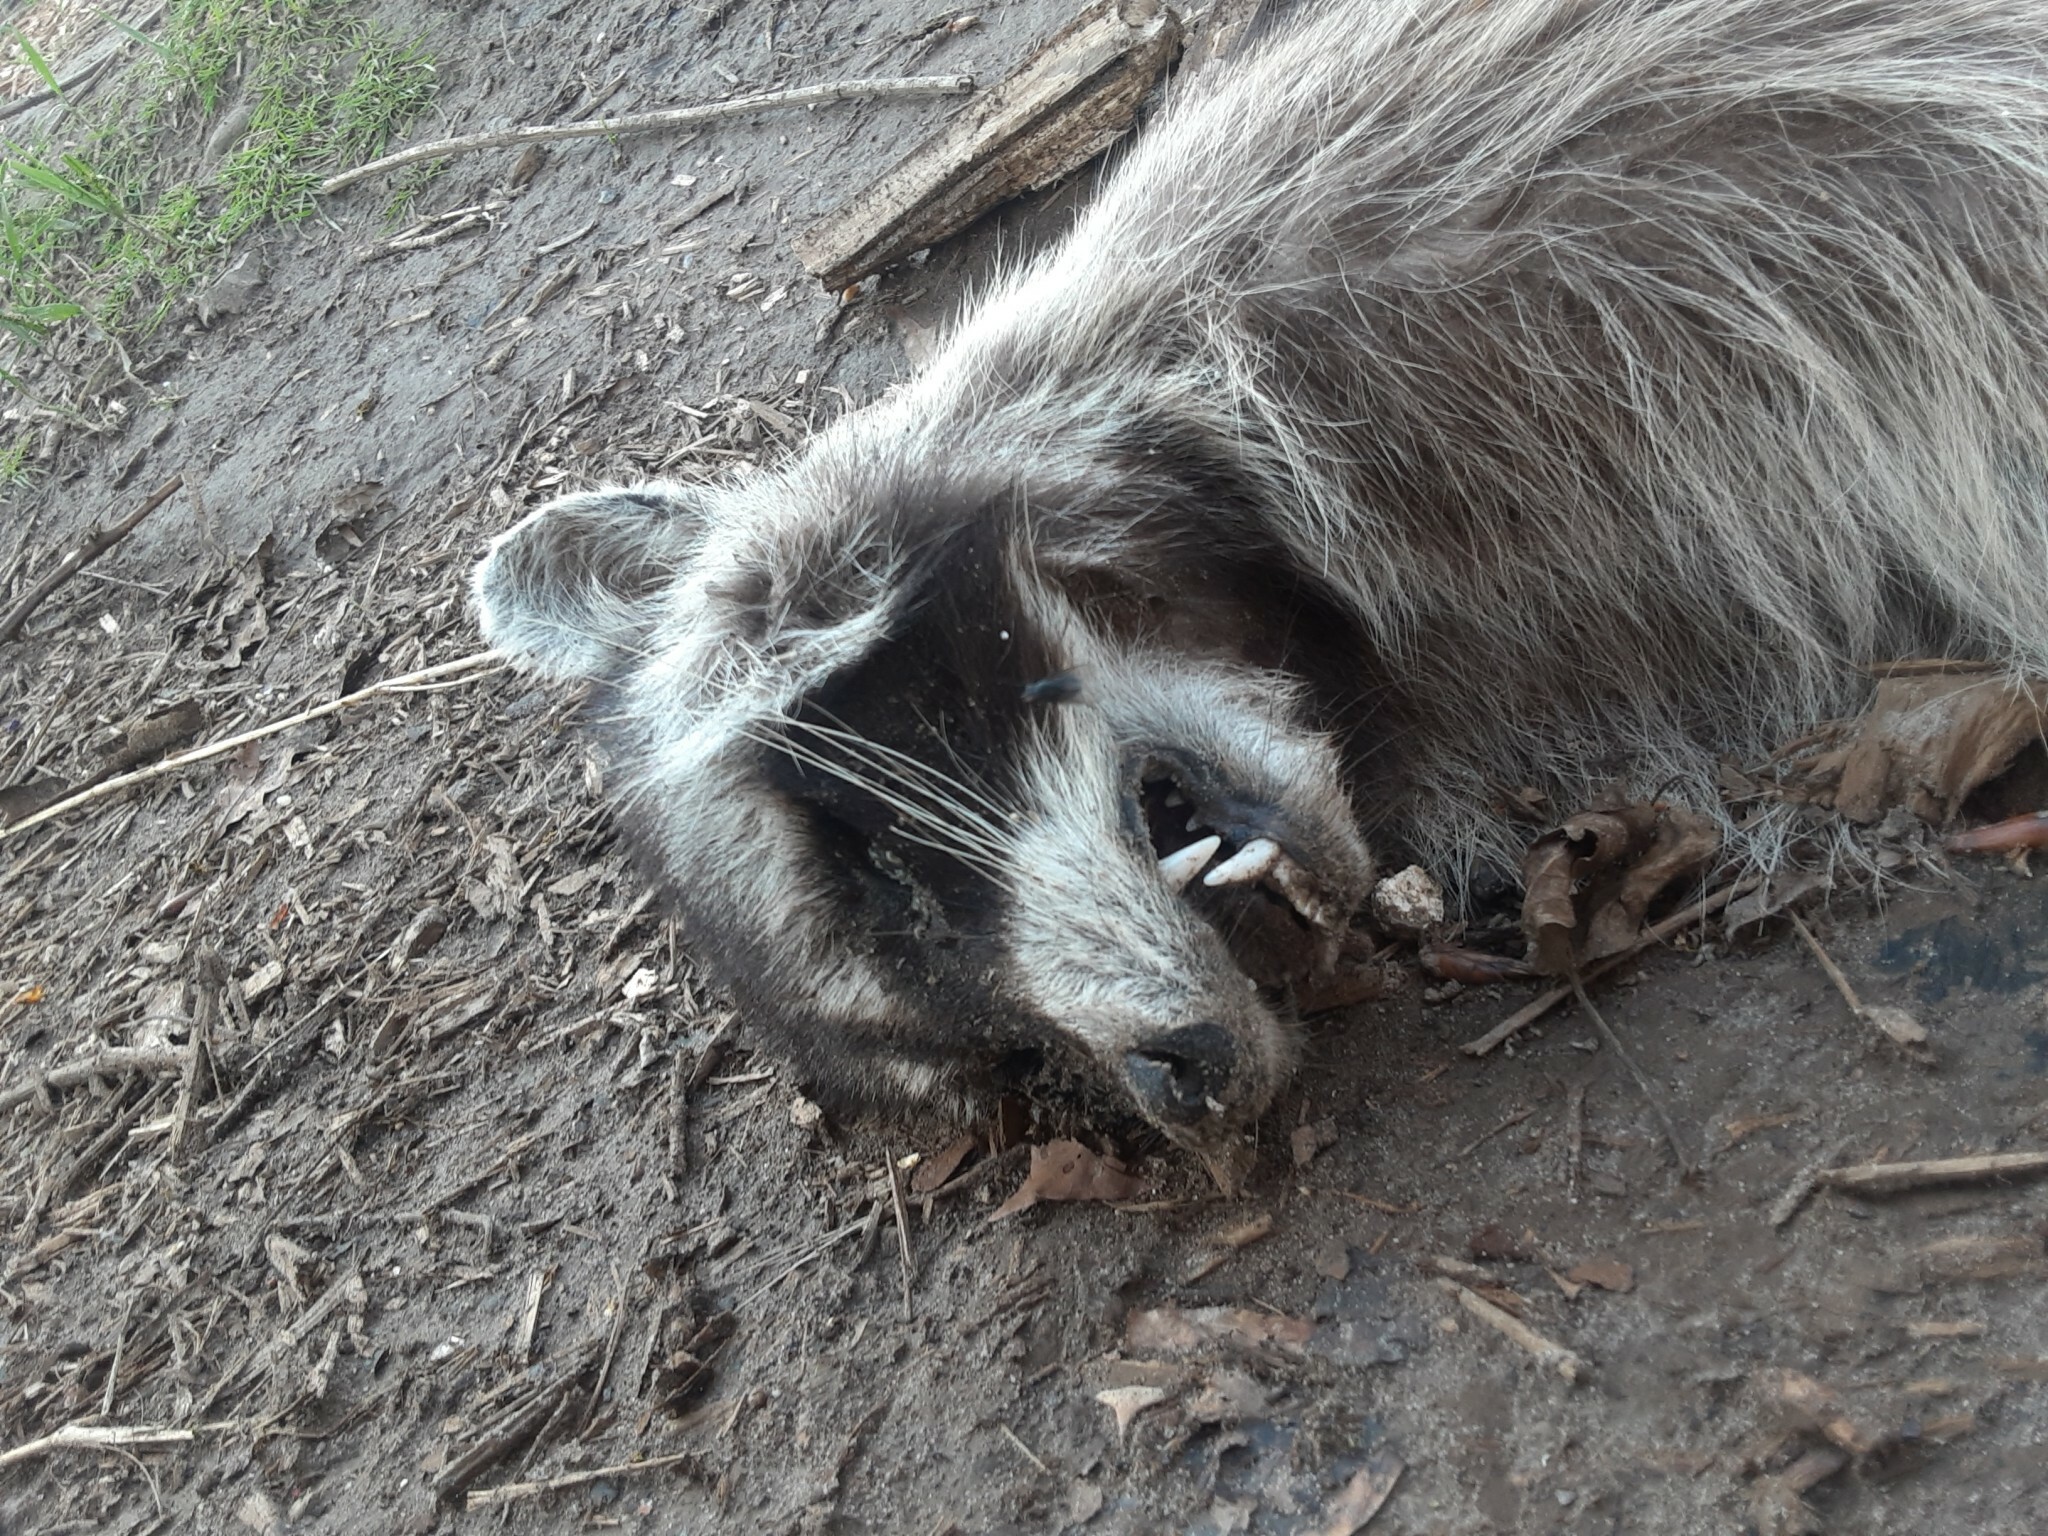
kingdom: Animalia
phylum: Chordata
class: Mammalia
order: Carnivora
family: Procyonidae
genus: Procyon
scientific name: Procyon lotor
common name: Raccoon
